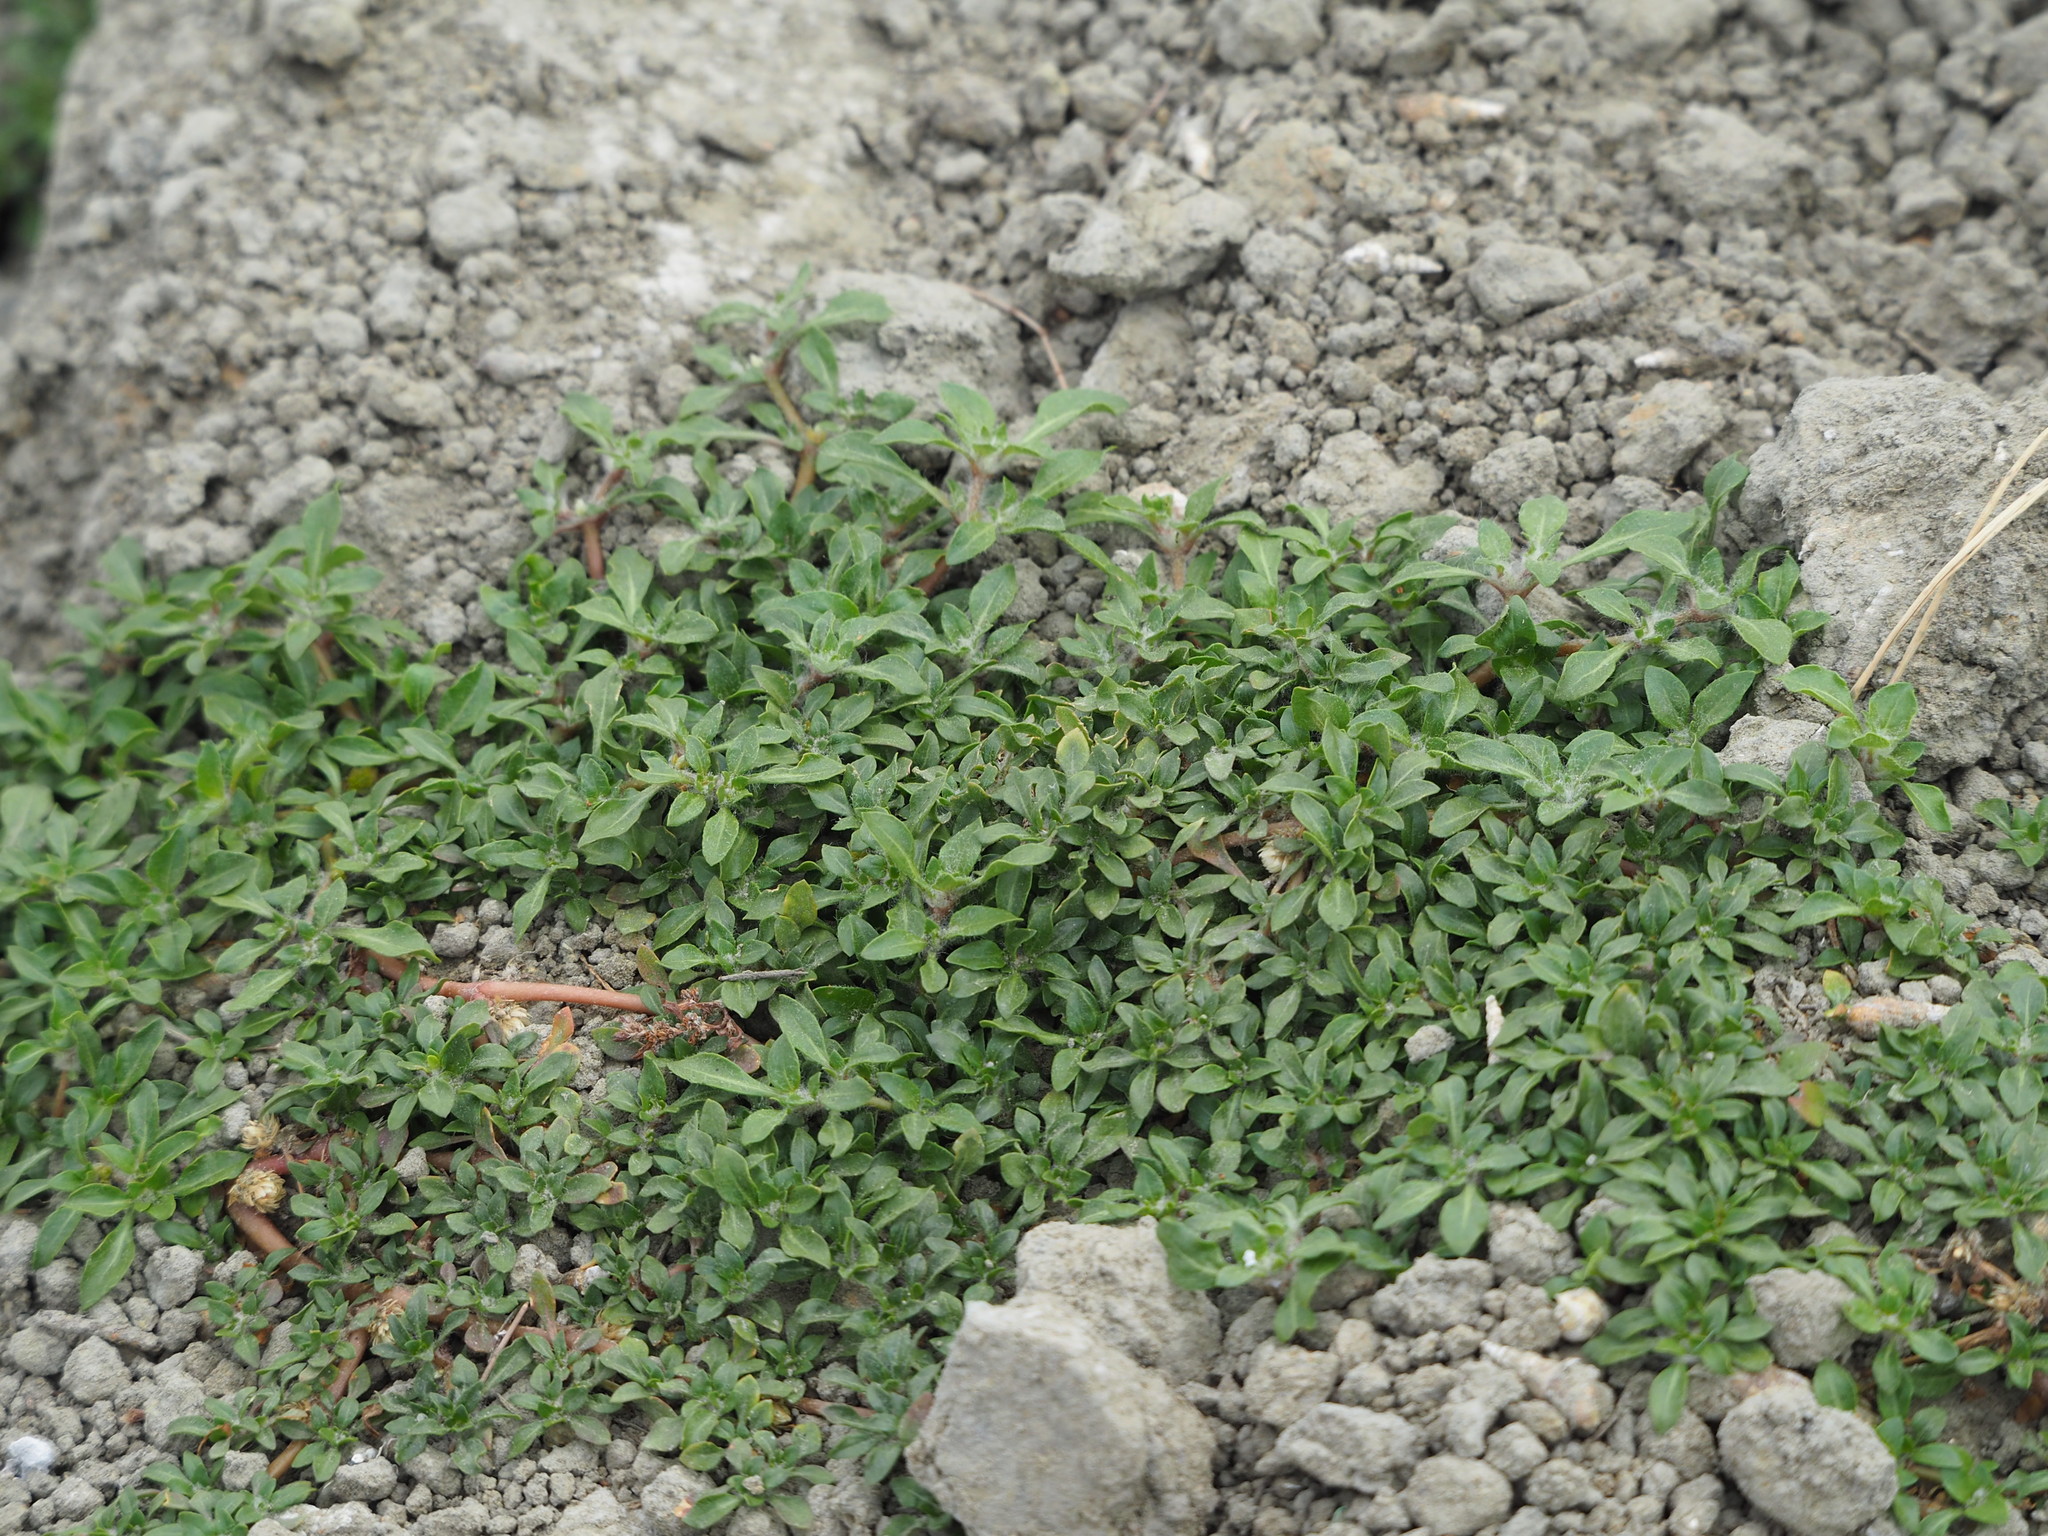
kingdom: Plantae
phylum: Tracheophyta
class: Magnoliopsida
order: Caryophyllales
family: Amaranthaceae
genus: Alternanthera
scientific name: Alternanthera paronychioides
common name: Smooth joyweed
